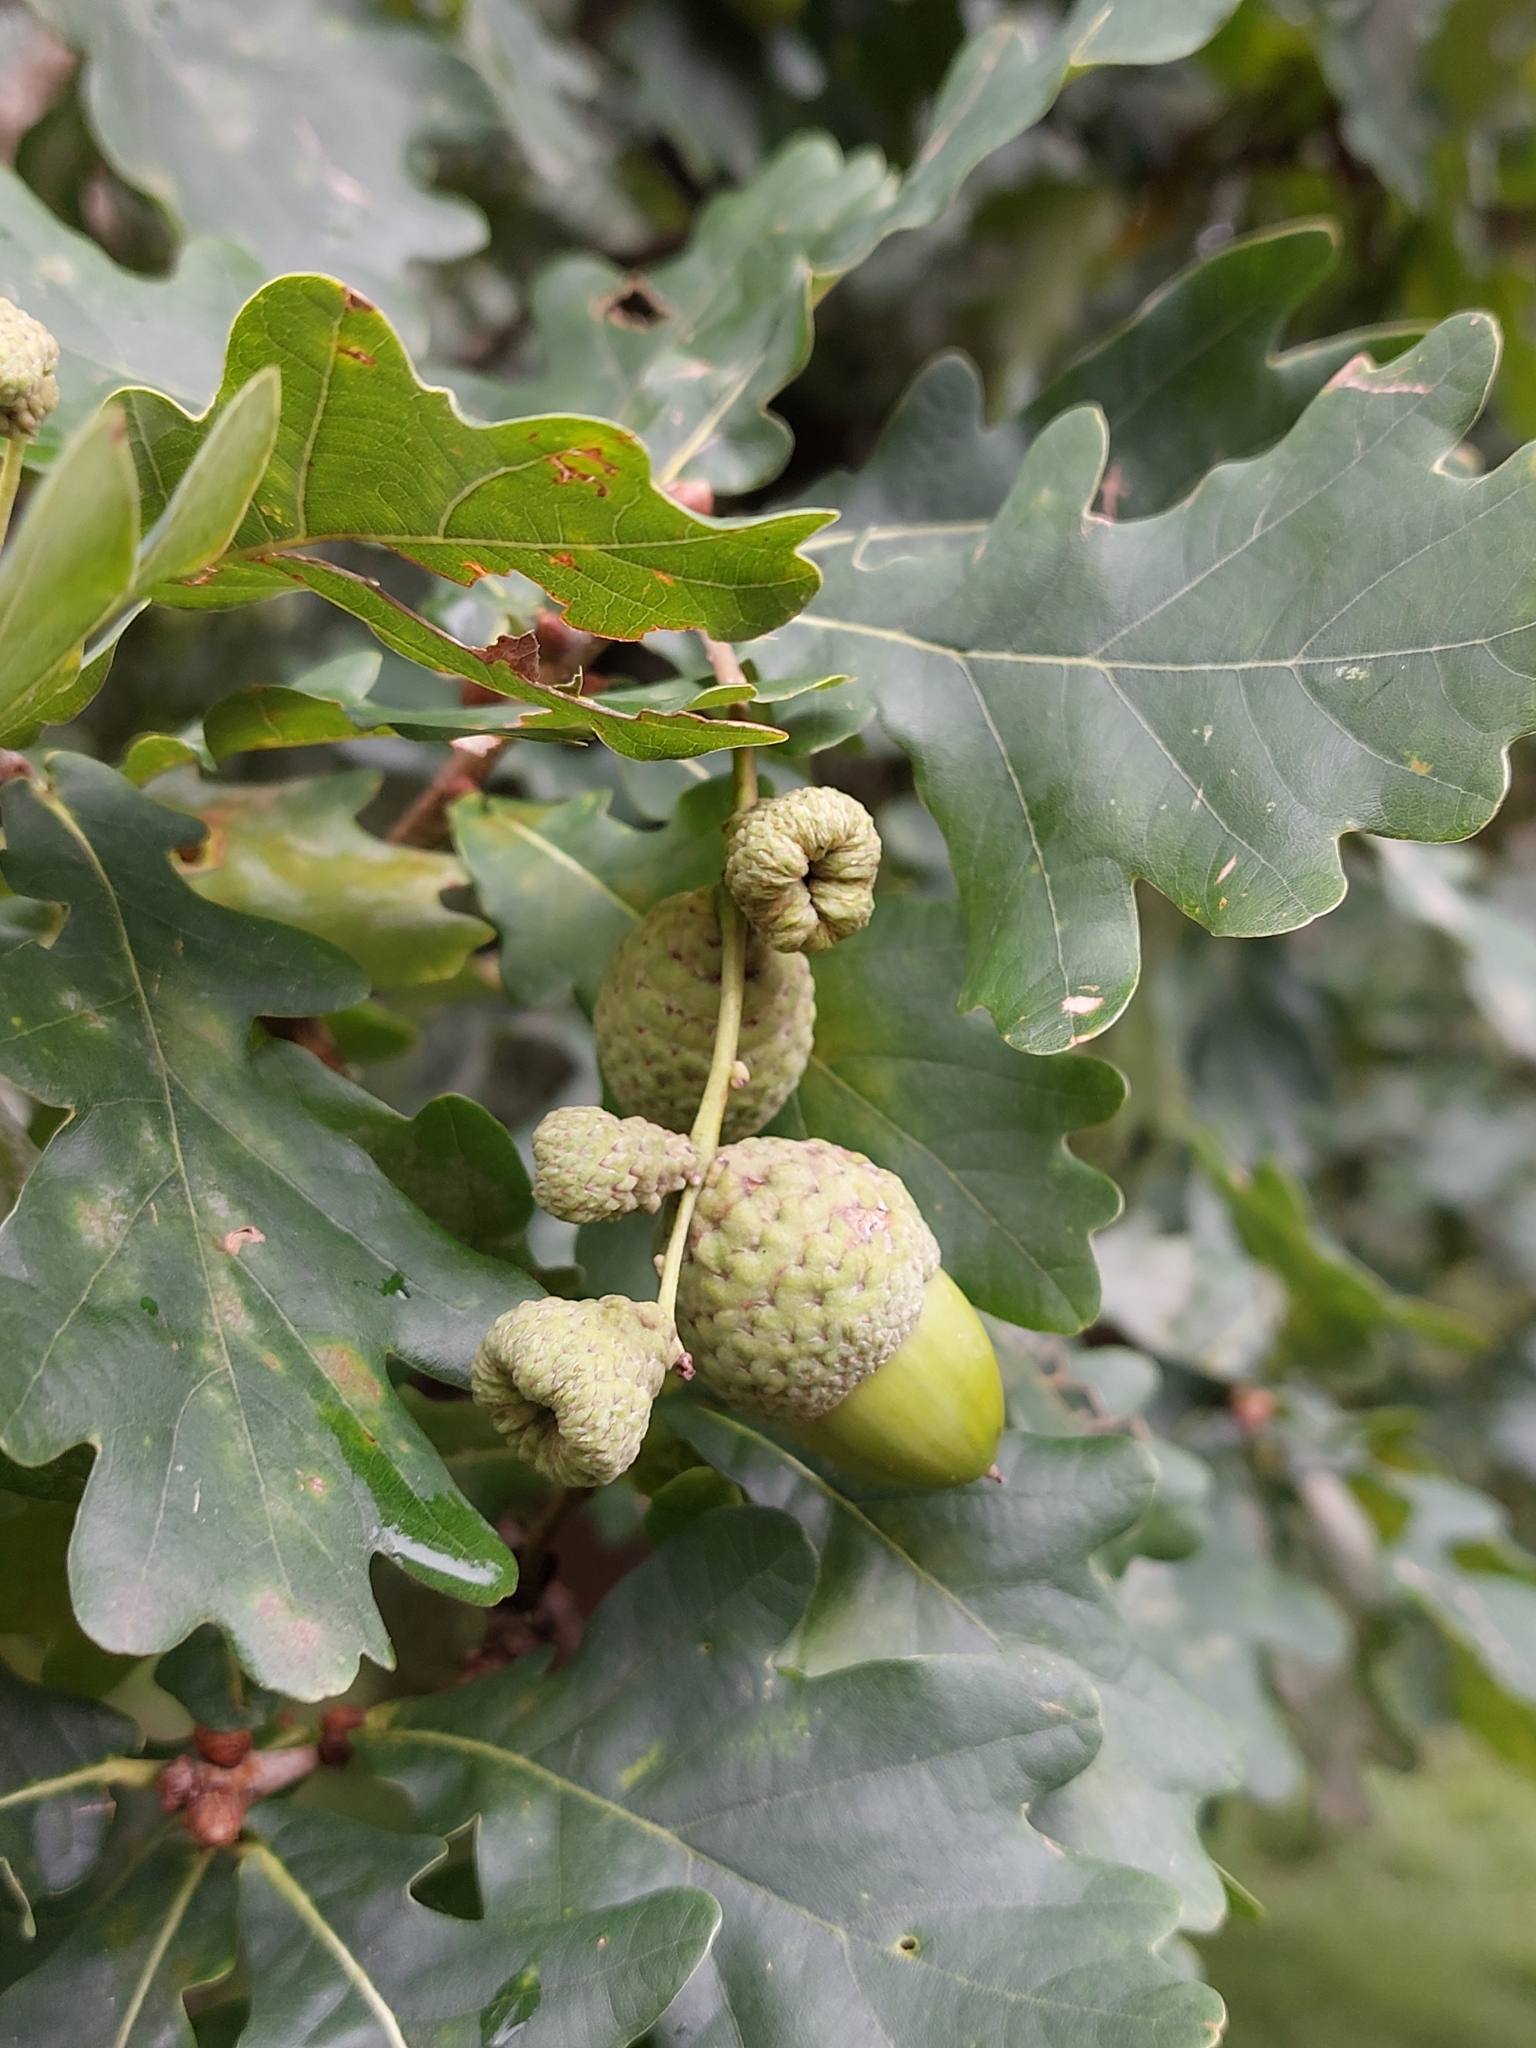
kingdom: Plantae
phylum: Tracheophyta
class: Magnoliopsida
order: Fagales
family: Fagaceae
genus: Quercus
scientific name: Quercus robur
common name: Pedunculate oak
